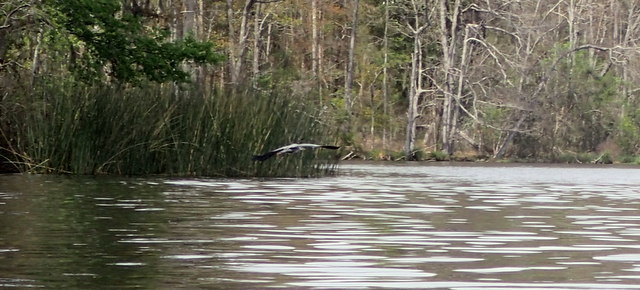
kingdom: Animalia
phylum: Chordata
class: Aves
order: Pelecaniformes
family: Ardeidae
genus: Ardea
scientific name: Ardea herodias
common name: Great blue heron
